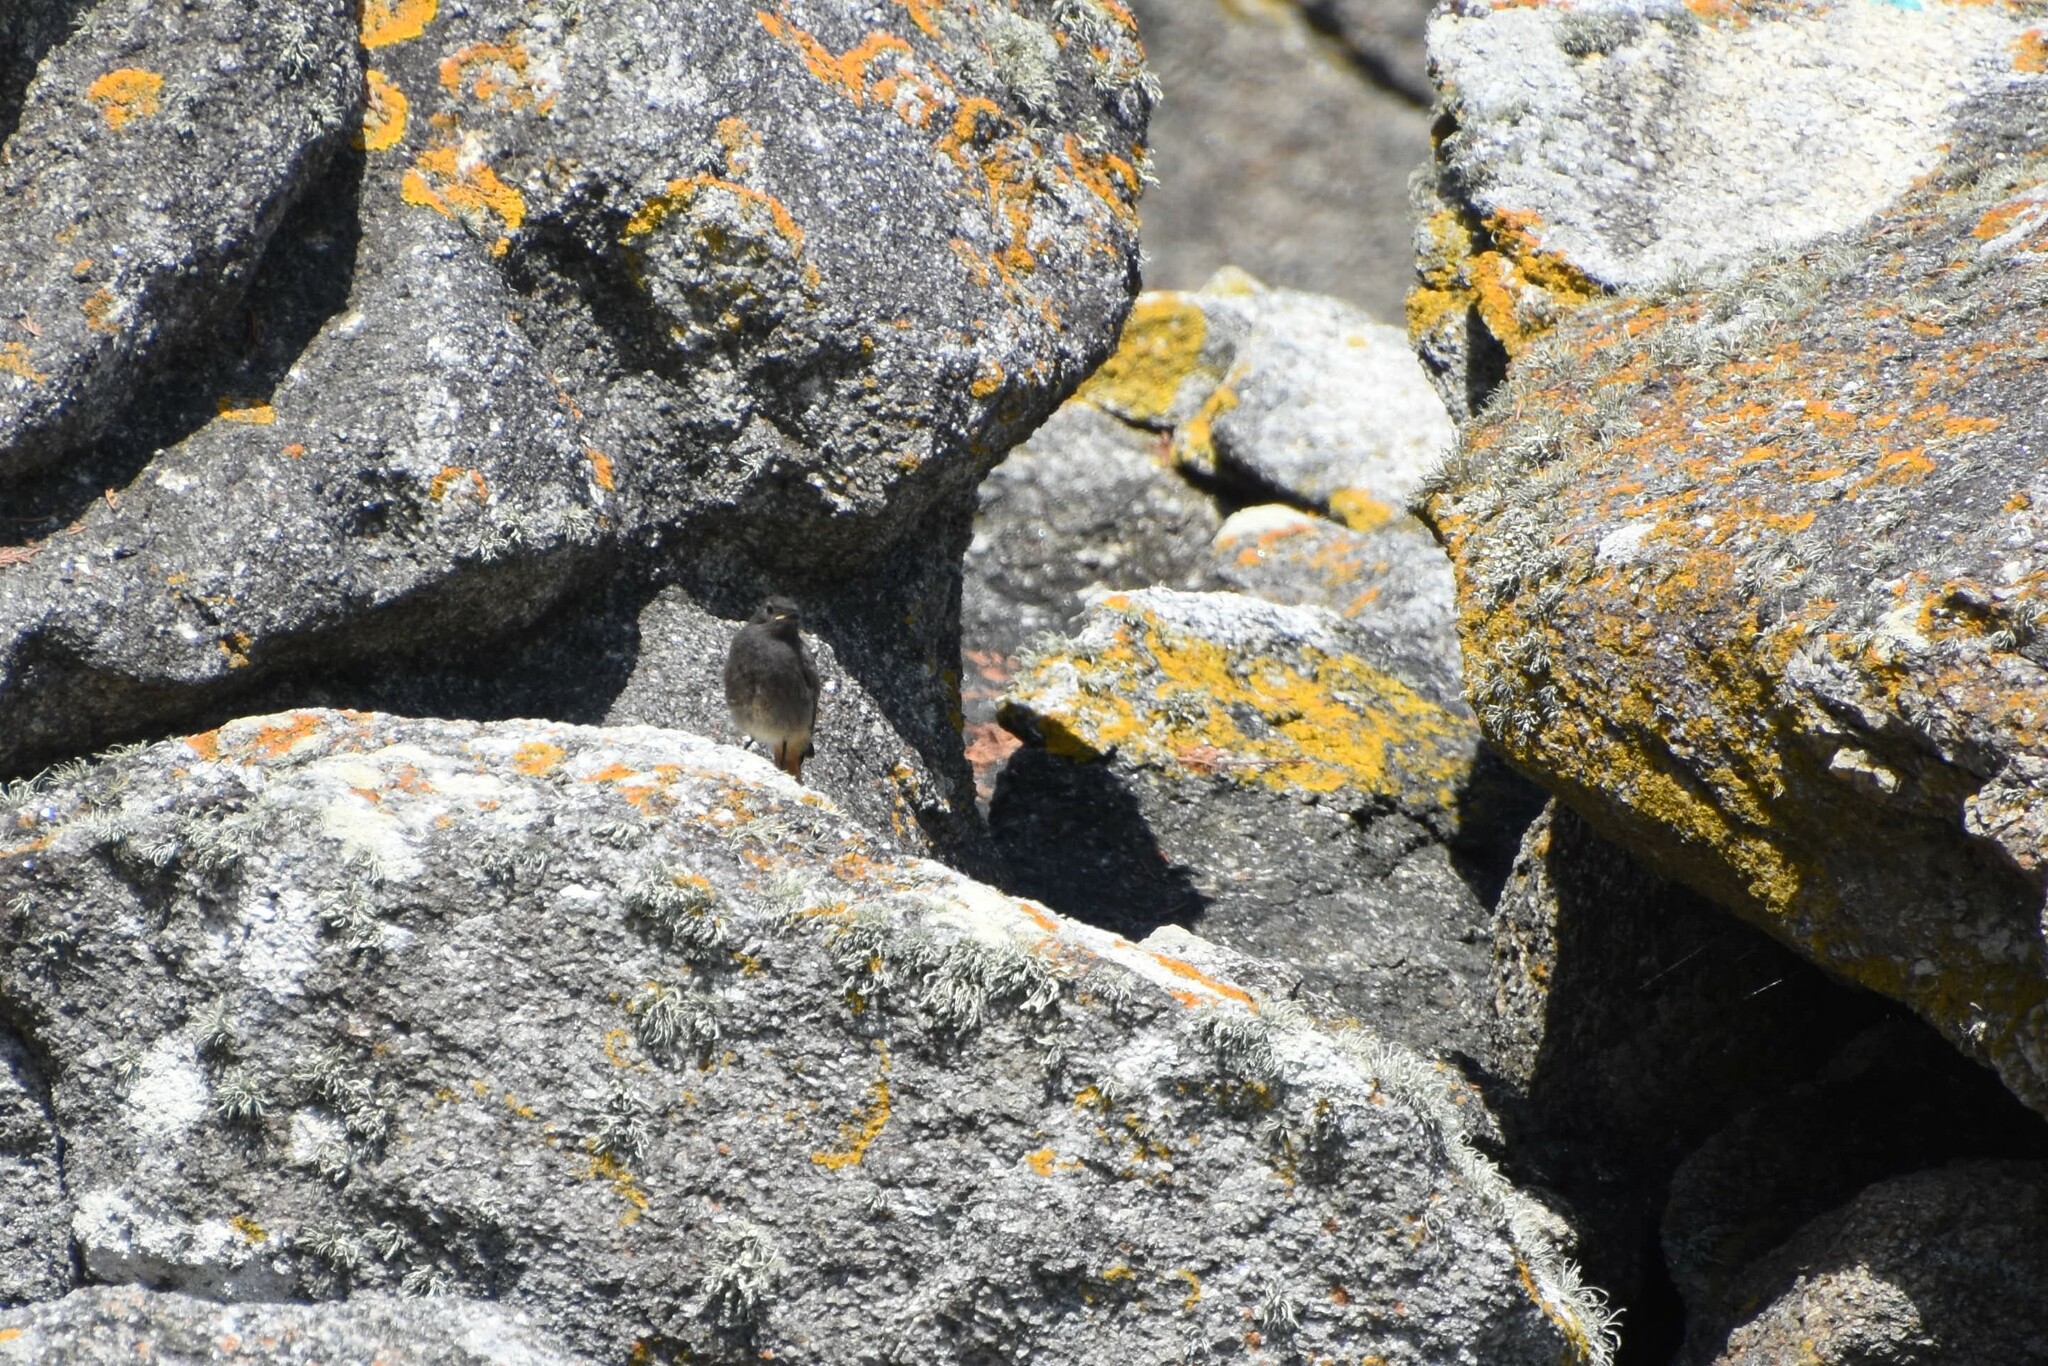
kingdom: Animalia
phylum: Chordata
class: Aves
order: Passeriformes
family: Muscicapidae
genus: Phoenicurus
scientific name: Phoenicurus ochruros
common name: Black redstart
